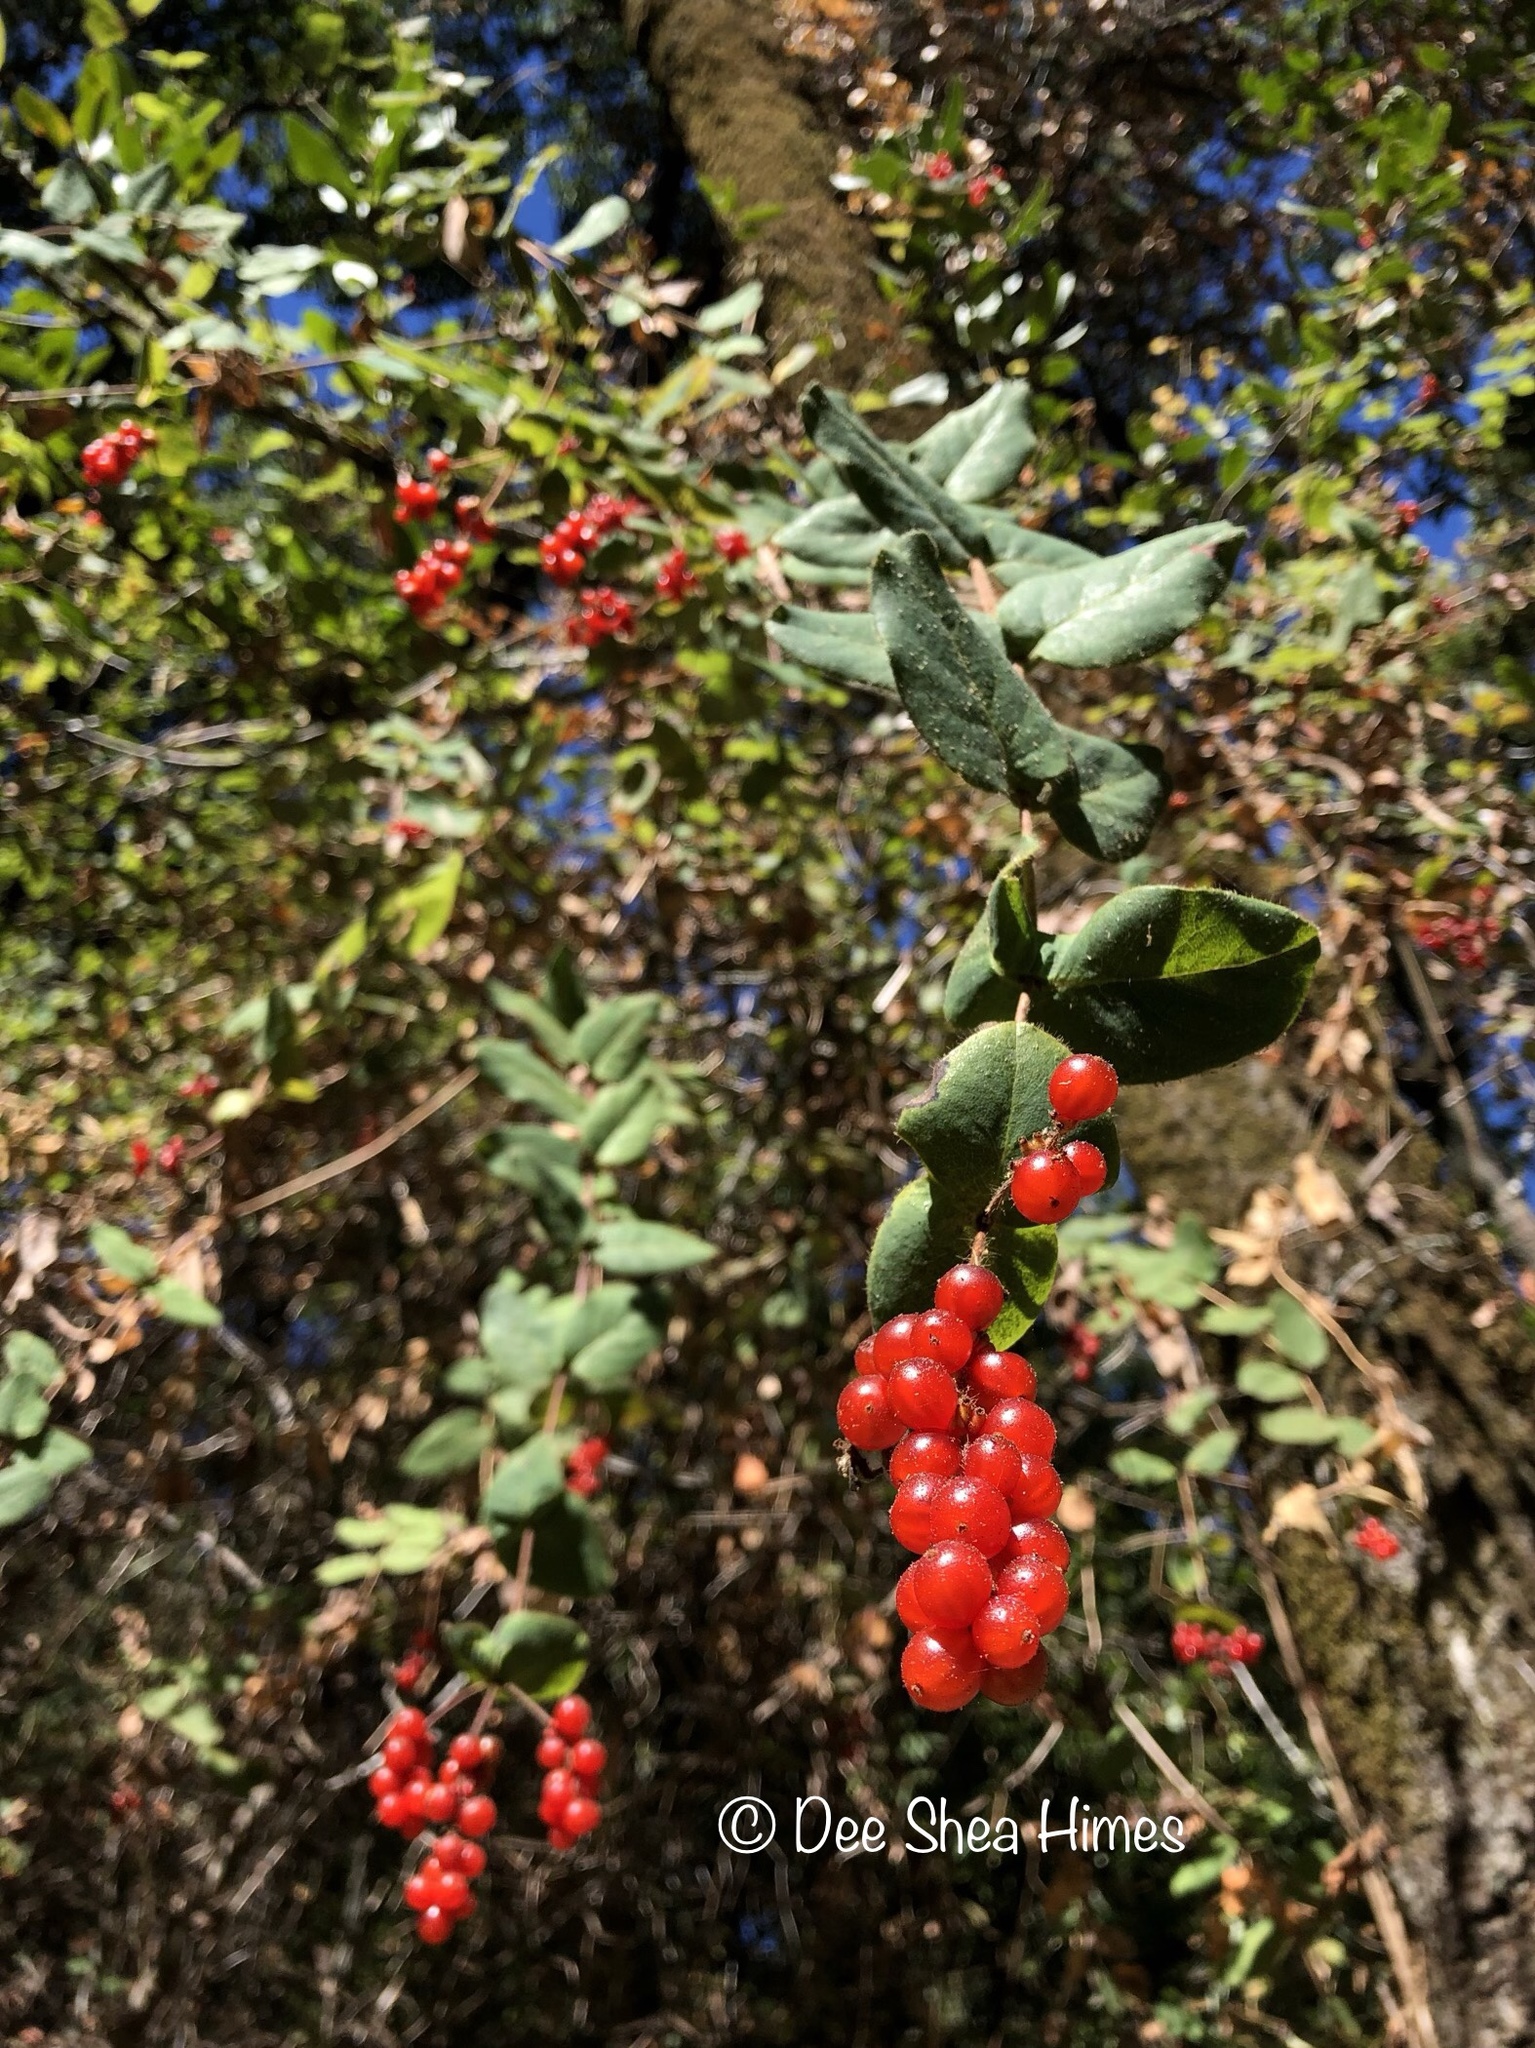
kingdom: Plantae
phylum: Tracheophyta
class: Magnoliopsida
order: Dipsacales
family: Caprifoliaceae
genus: Lonicera
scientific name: Lonicera hispidula
